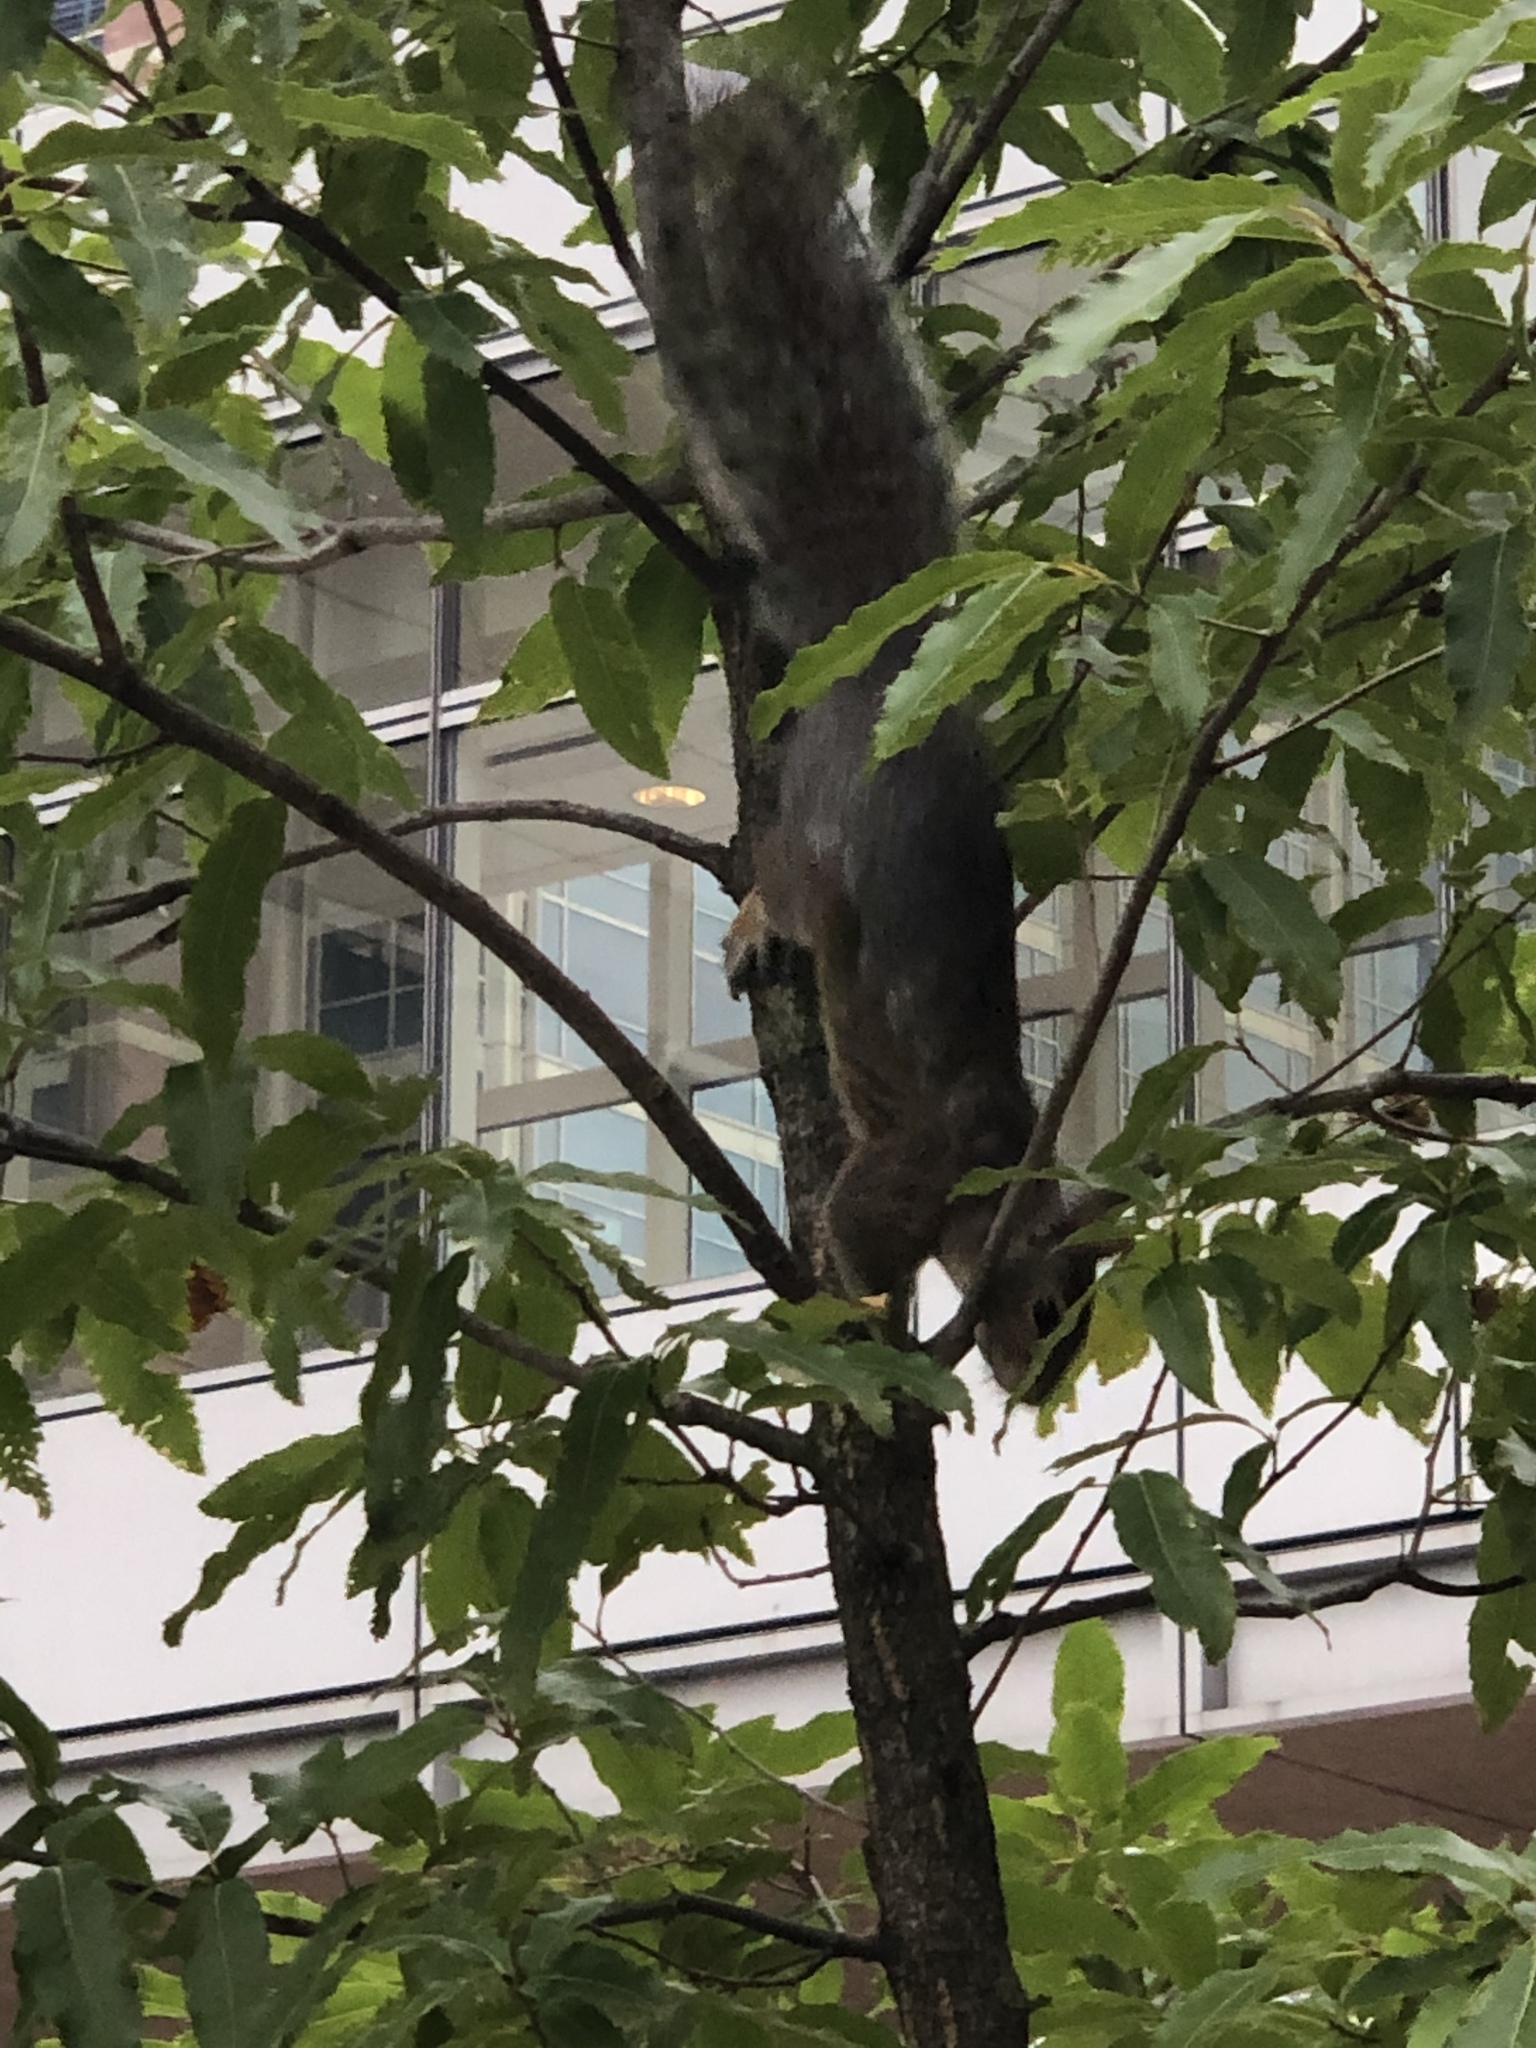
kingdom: Animalia
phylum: Chordata
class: Mammalia
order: Rodentia
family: Sciuridae
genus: Sciurus
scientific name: Sciurus carolinensis
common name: Eastern gray squirrel
